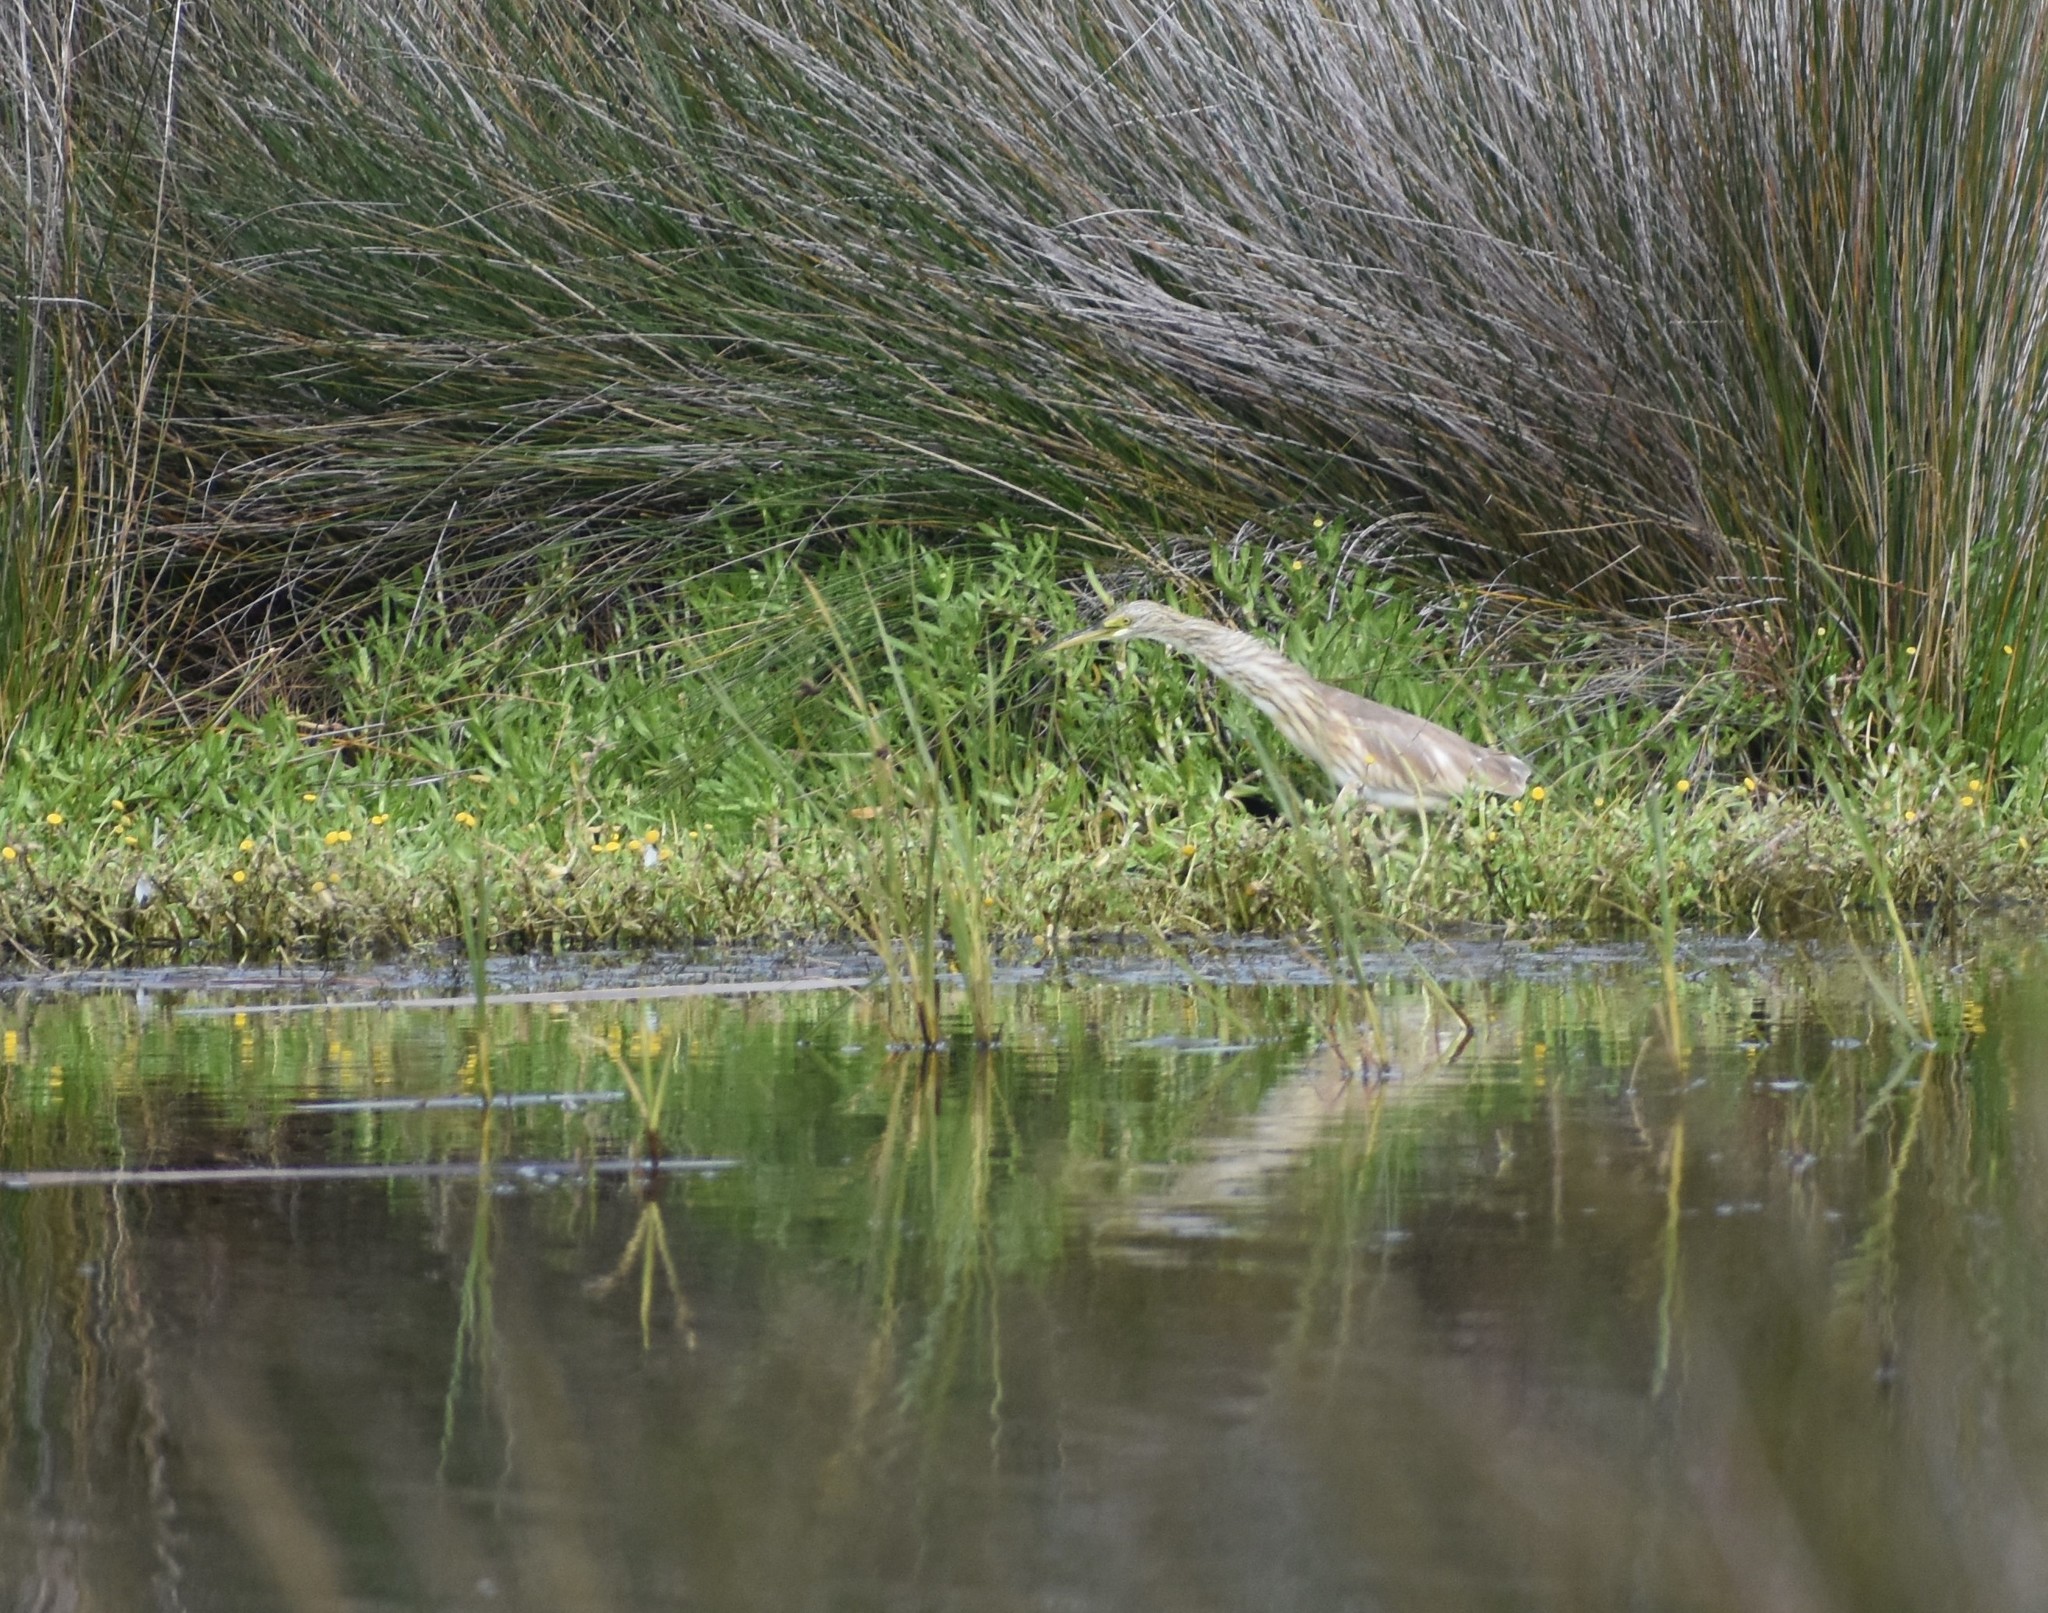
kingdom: Animalia
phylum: Chordata
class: Aves
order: Pelecaniformes
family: Ardeidae
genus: Ardeola
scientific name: Ardeola ralloides
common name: Squacco heron
